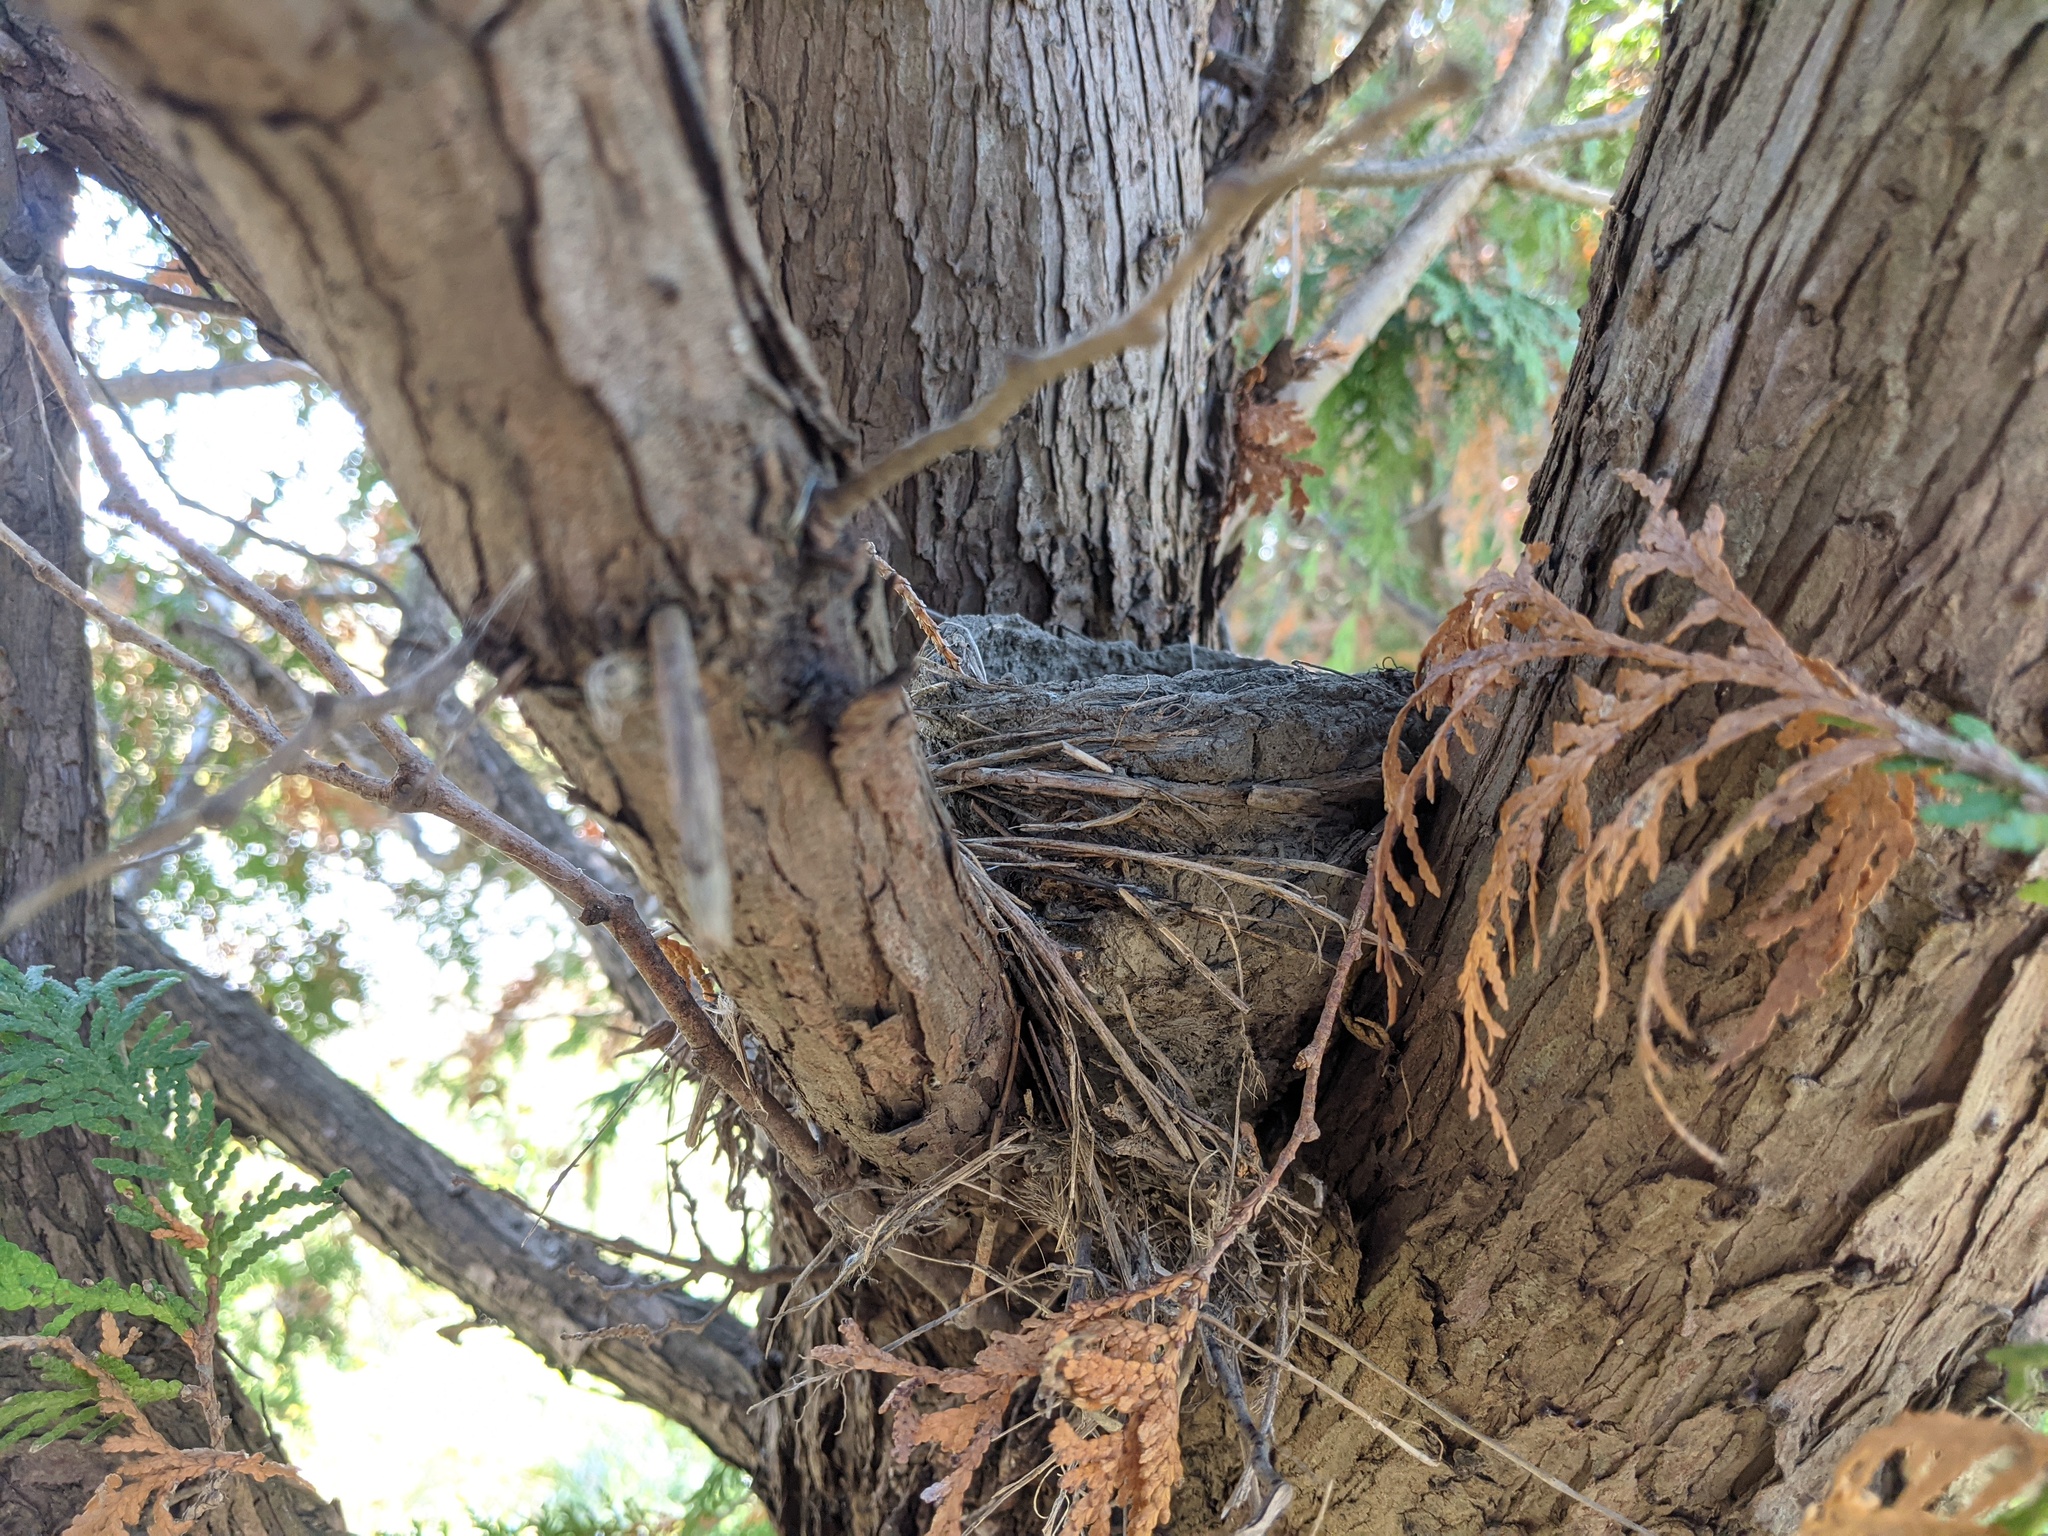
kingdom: Animalia
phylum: Chordata
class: Aves
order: Passeriformes
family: Turdidae
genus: Turdus
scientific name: Turdus migratorius
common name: American robin
